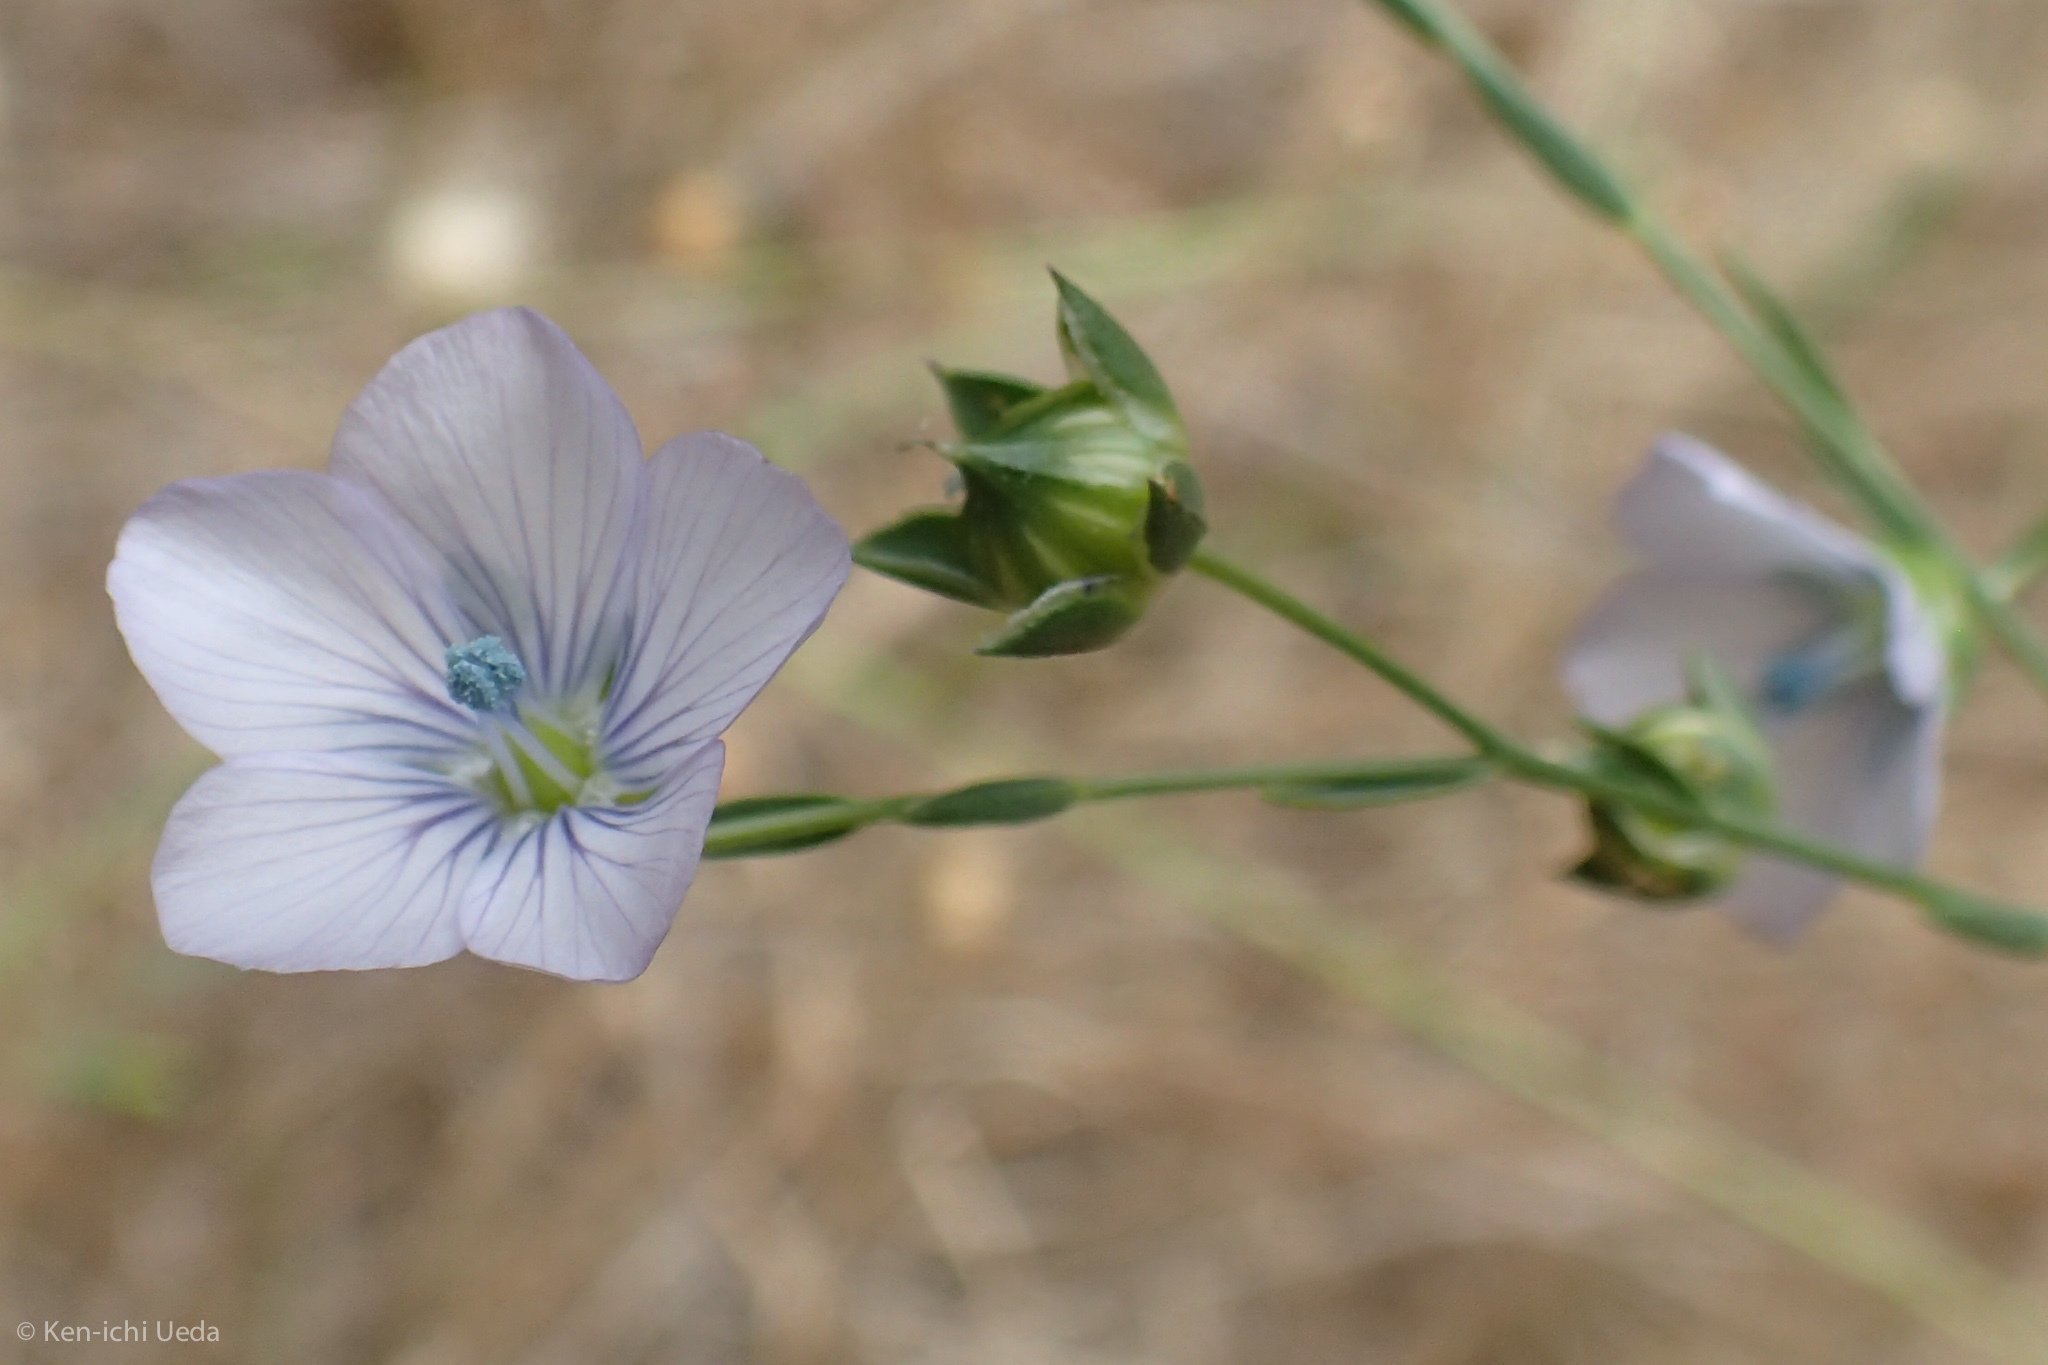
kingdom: Plantae
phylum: Tracheophyta
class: Magnoliopsida
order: Malpighiales
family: Linaceae
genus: Linum
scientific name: Linum bienne
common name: Pale flax
